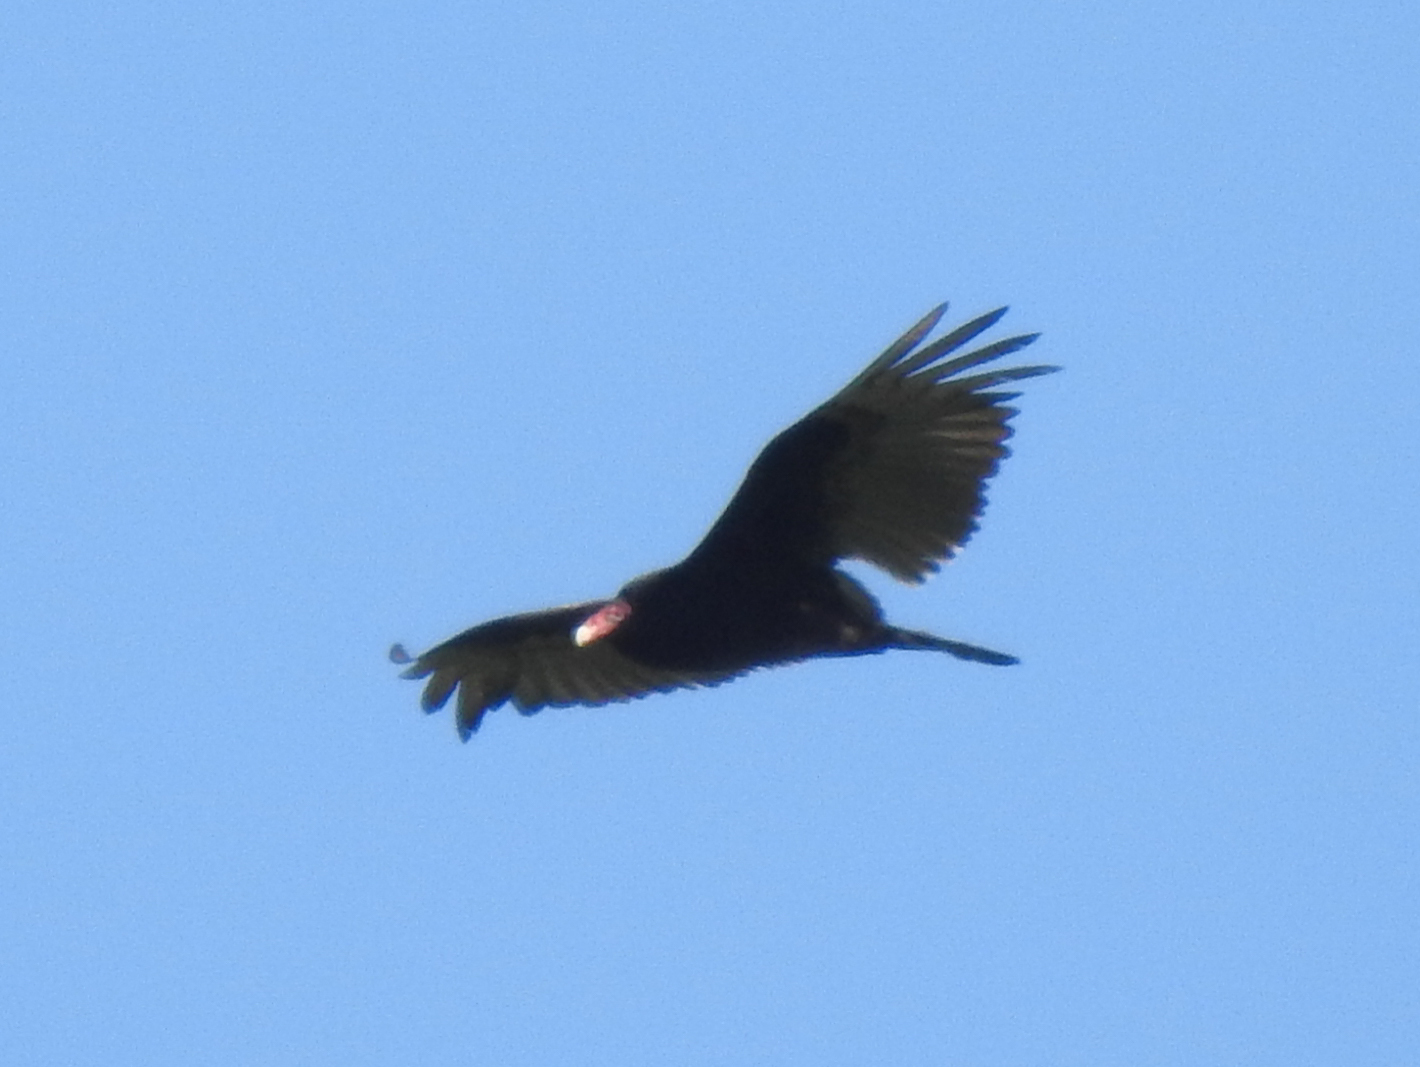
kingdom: Animalia
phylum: Chordata
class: Aves
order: Accipitriformes
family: Cathartidae
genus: Cathartes
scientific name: Cathartes aura
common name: Turkey vulture
